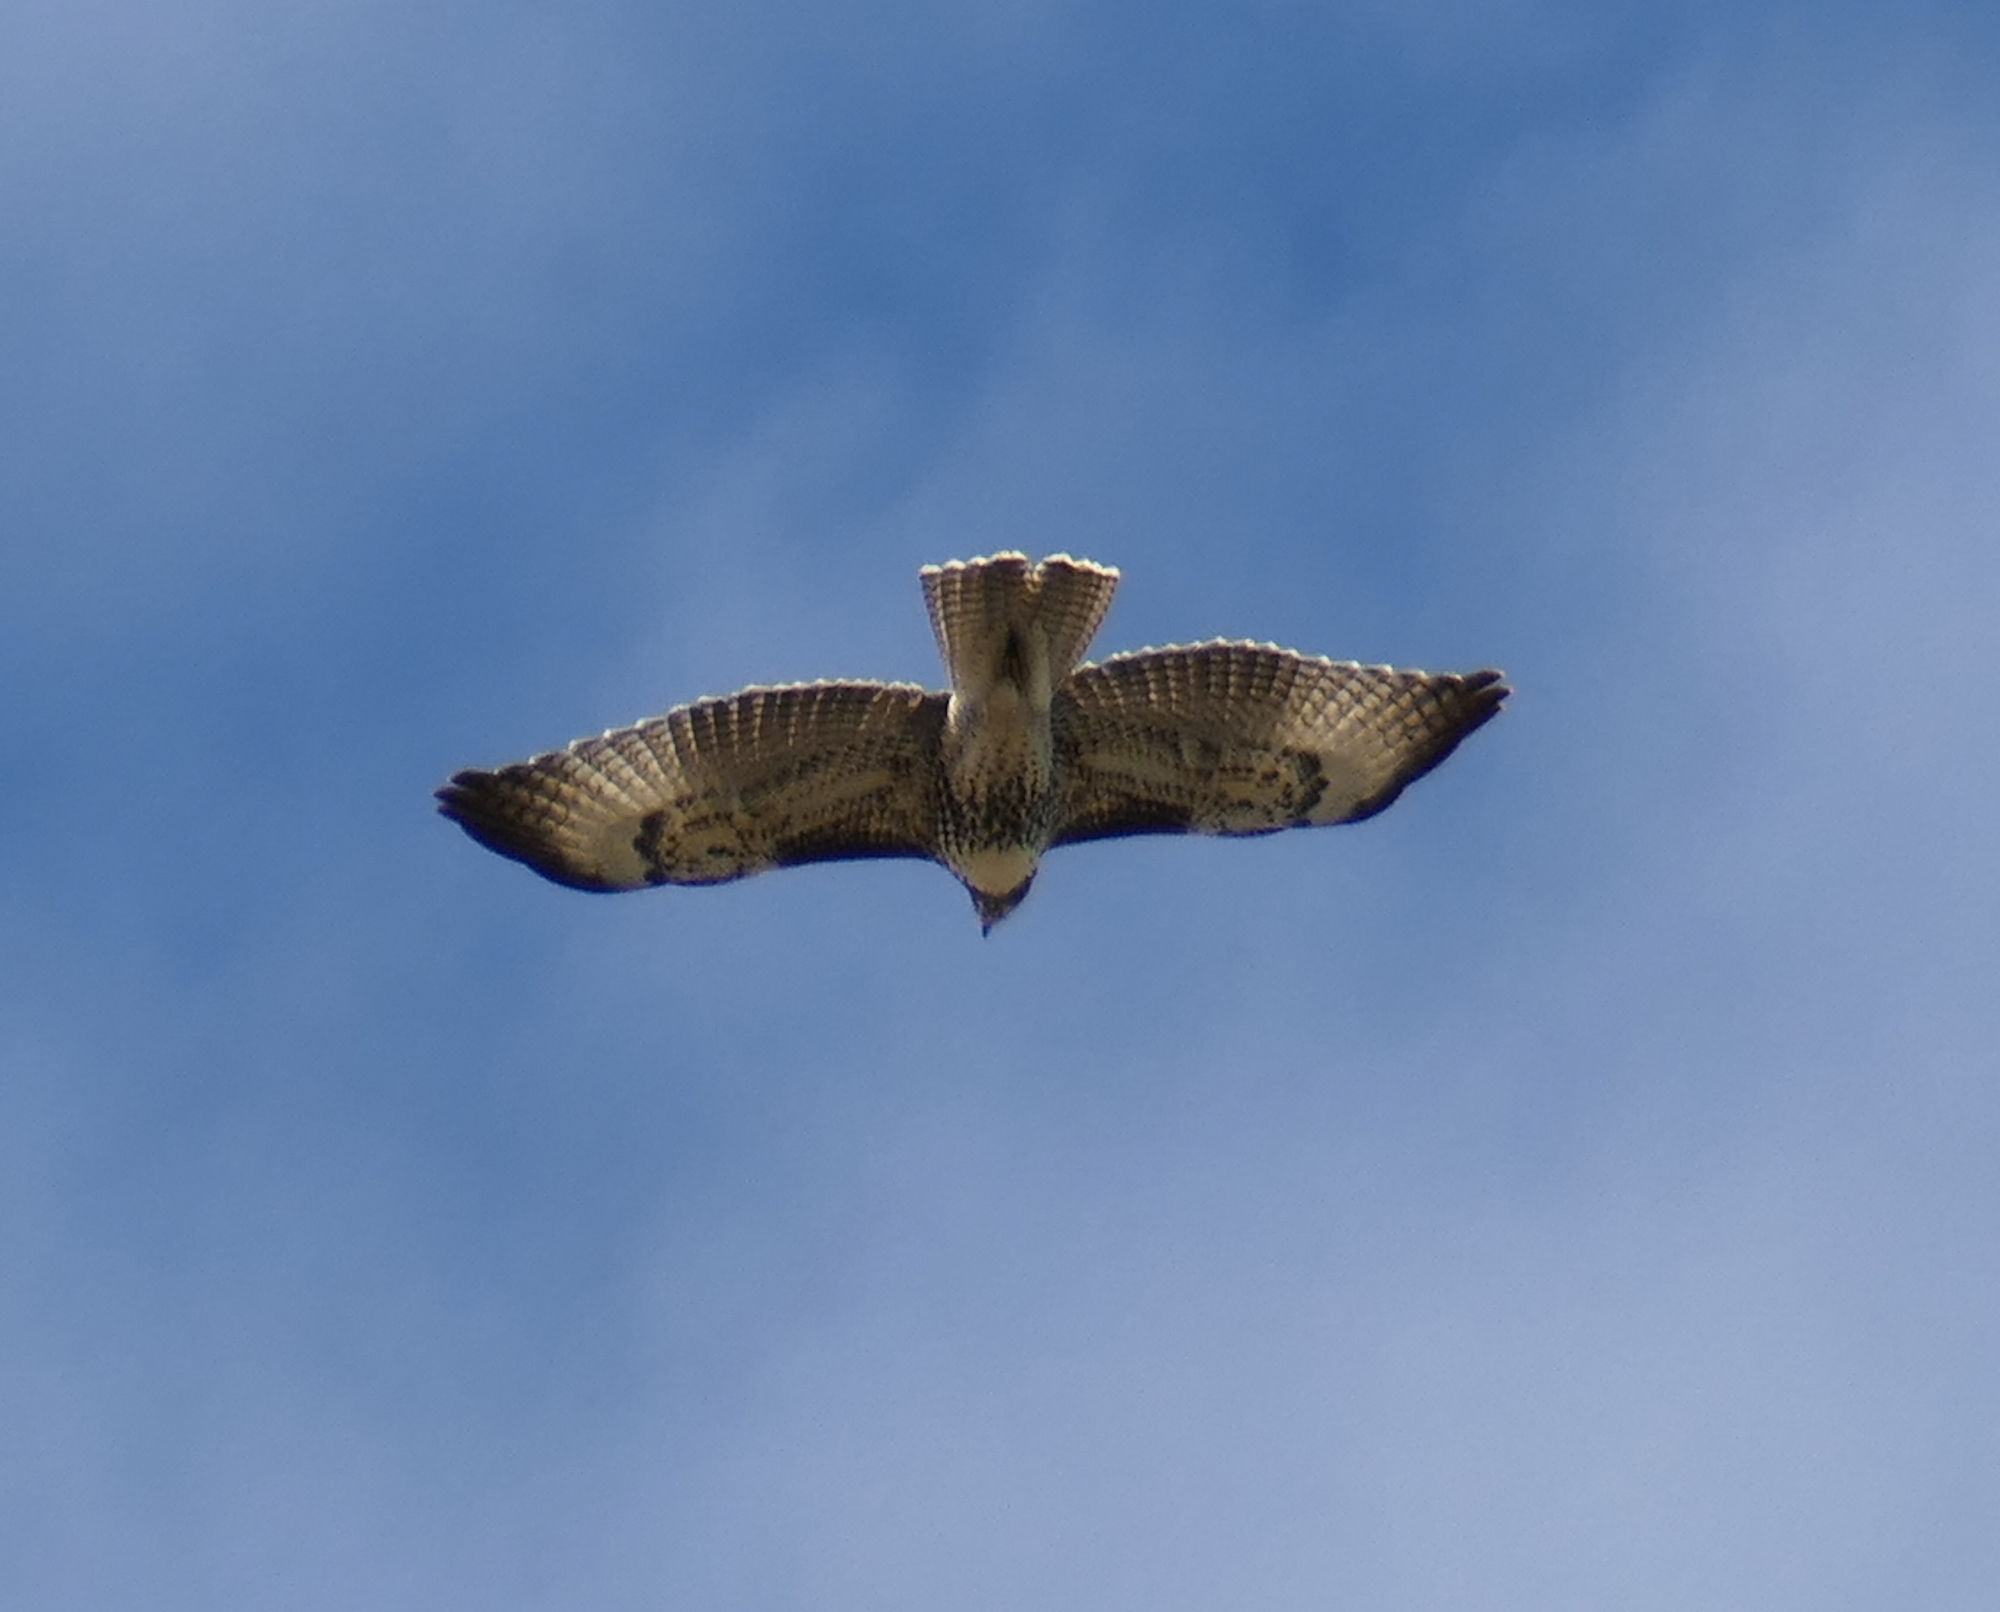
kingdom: Animalia
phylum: Chordata
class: Aves
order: Accipitriformes
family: Accipitridae
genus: Buteo
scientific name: Buteo jamaicensis
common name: Red-tailed hawk
